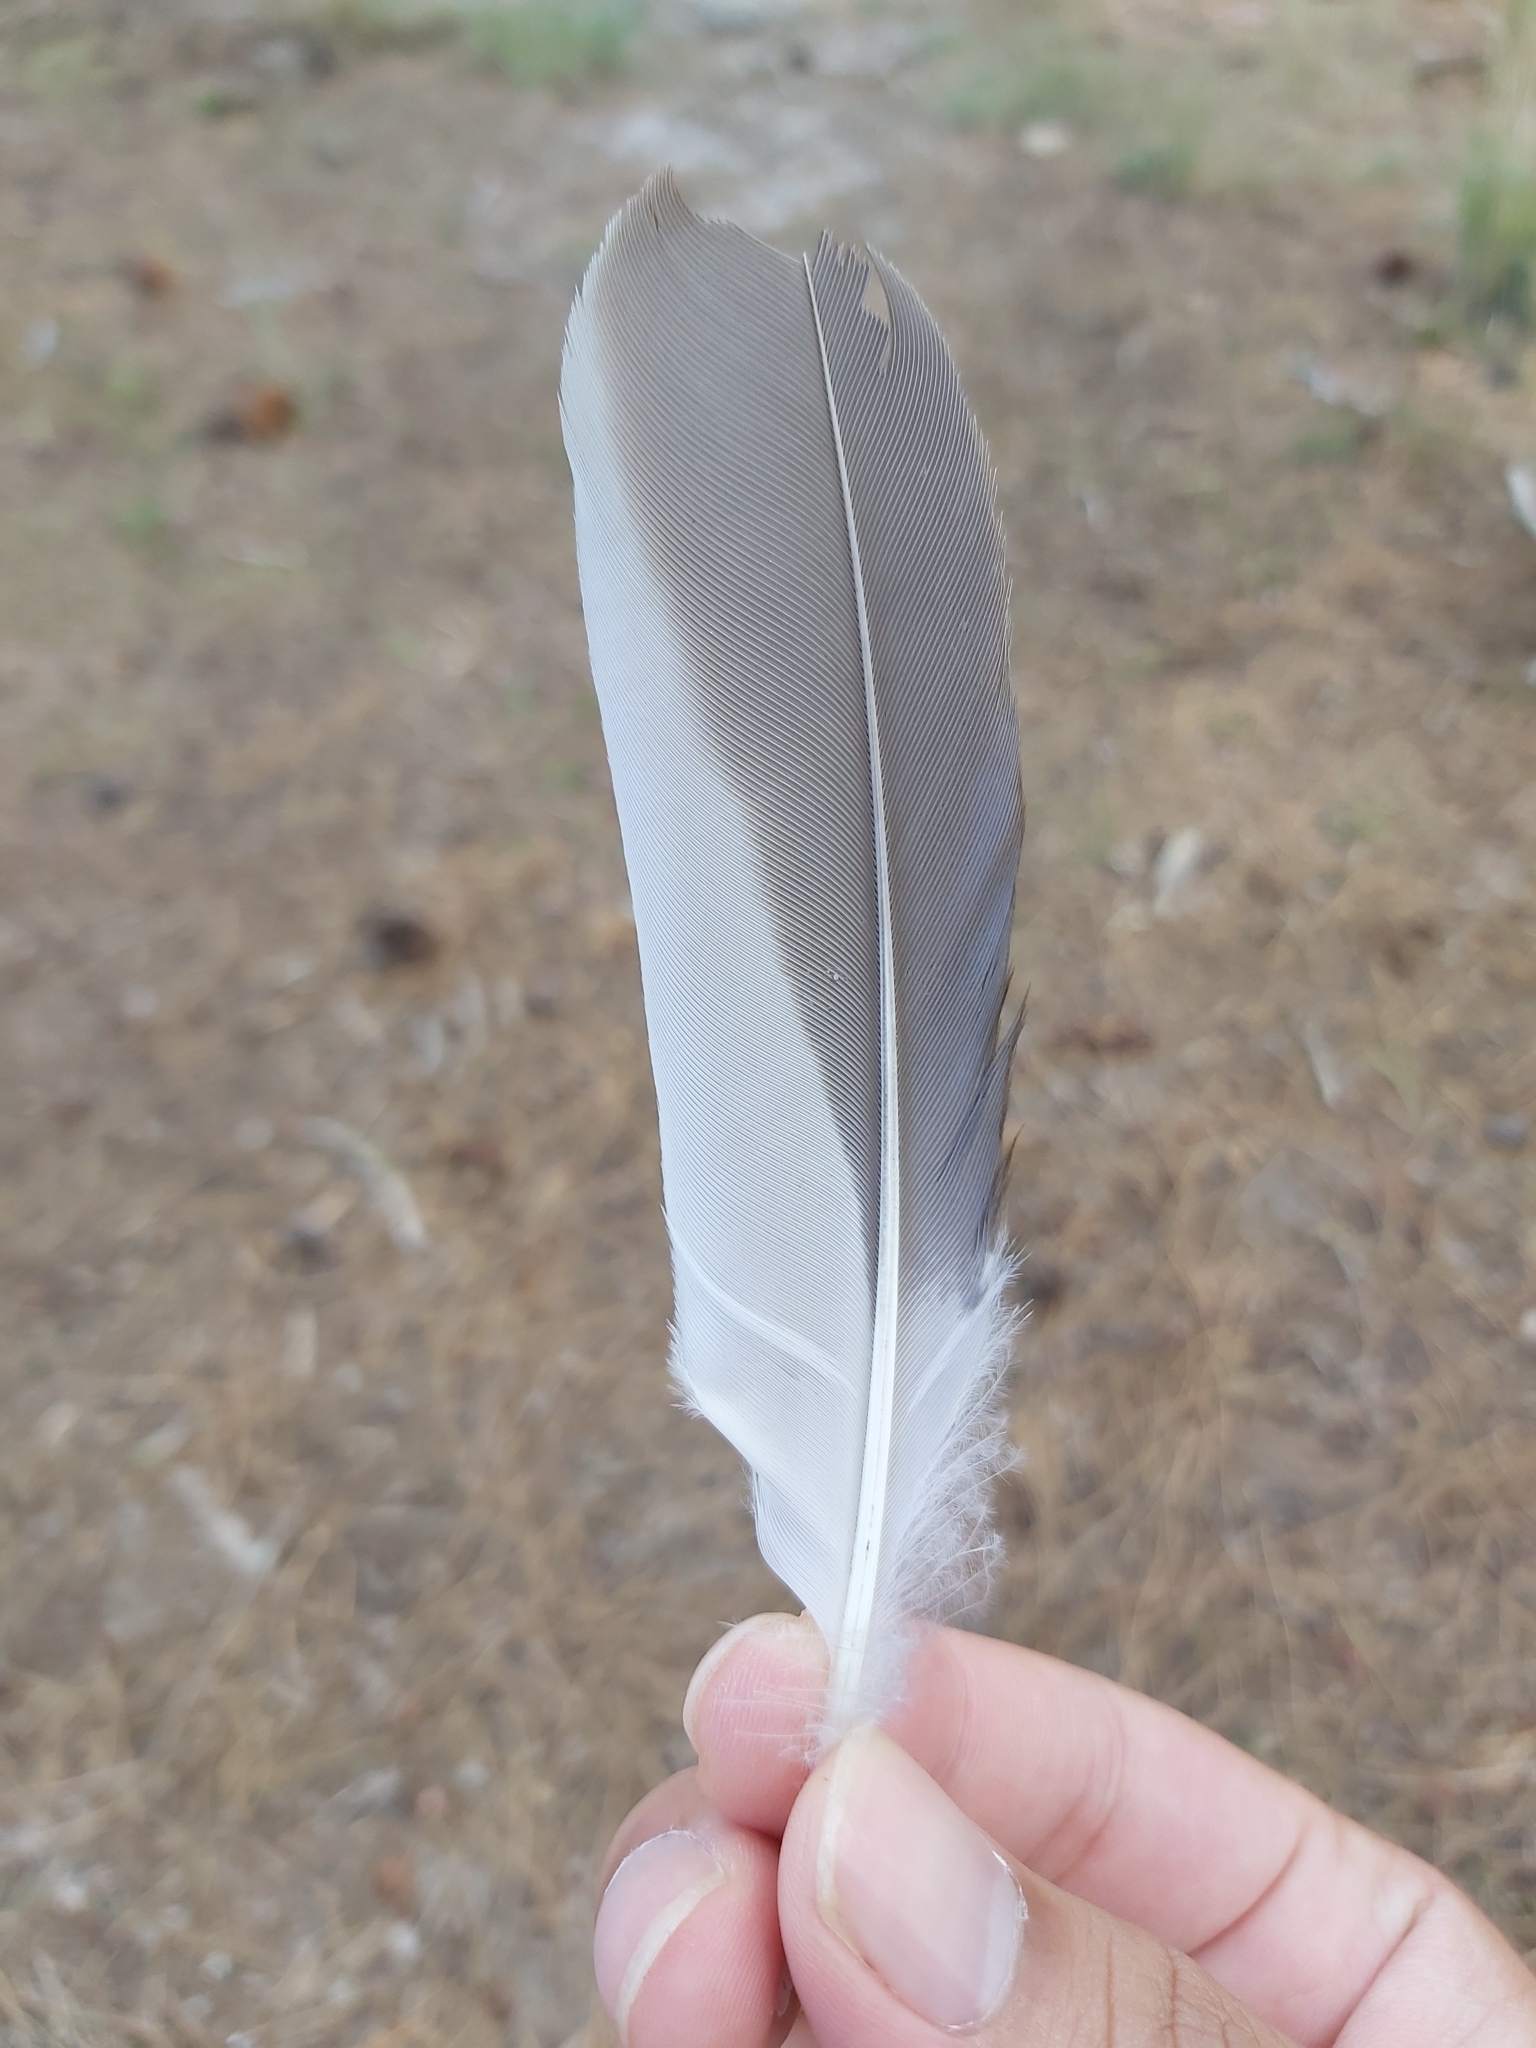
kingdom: Animalia
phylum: Chordata
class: Aves
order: Coraciiformes
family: Alcedinidae
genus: Dacelo
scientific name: Dacelo novaeguineae
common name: Laughing kookaburra
